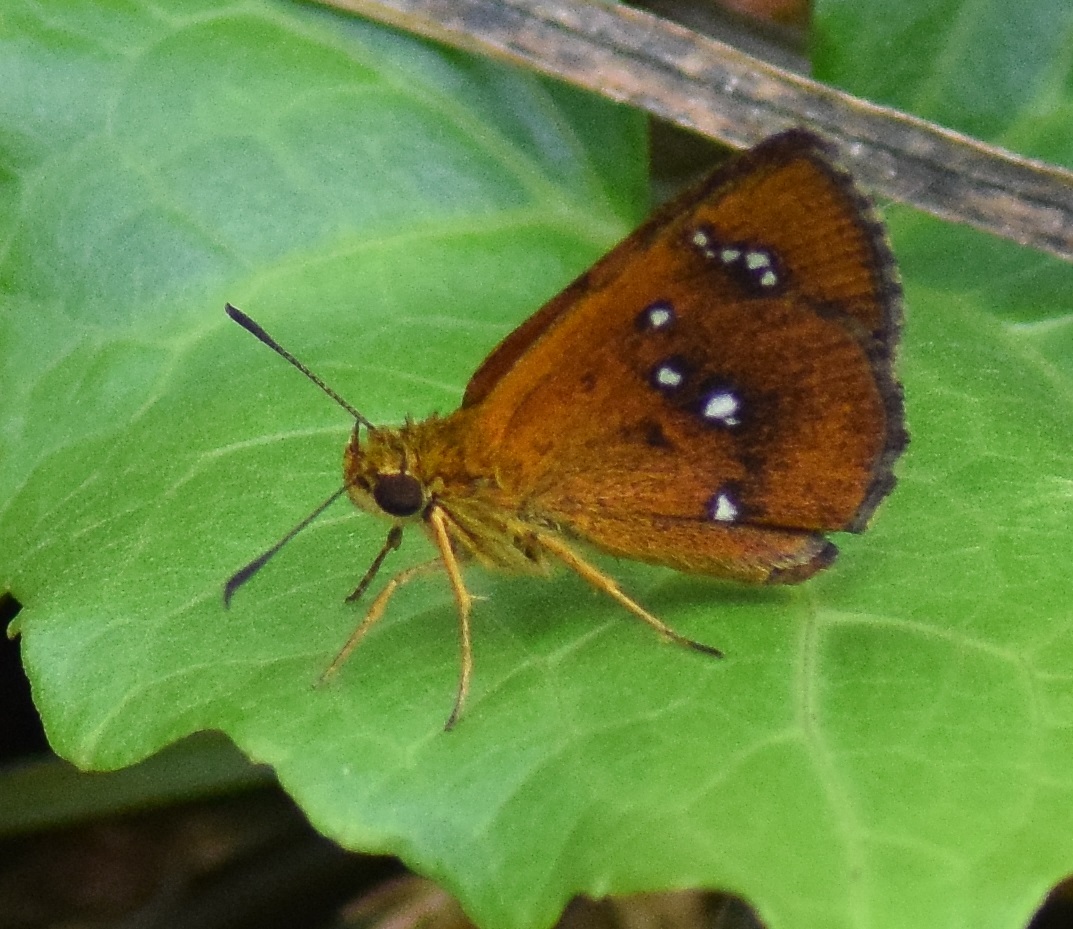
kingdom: Animalia
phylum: Arthropoda
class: Insecta
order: Lepidoptera
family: Hesperiidae
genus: Iambrix
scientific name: Iambrix salsala
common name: Chestnut bob
